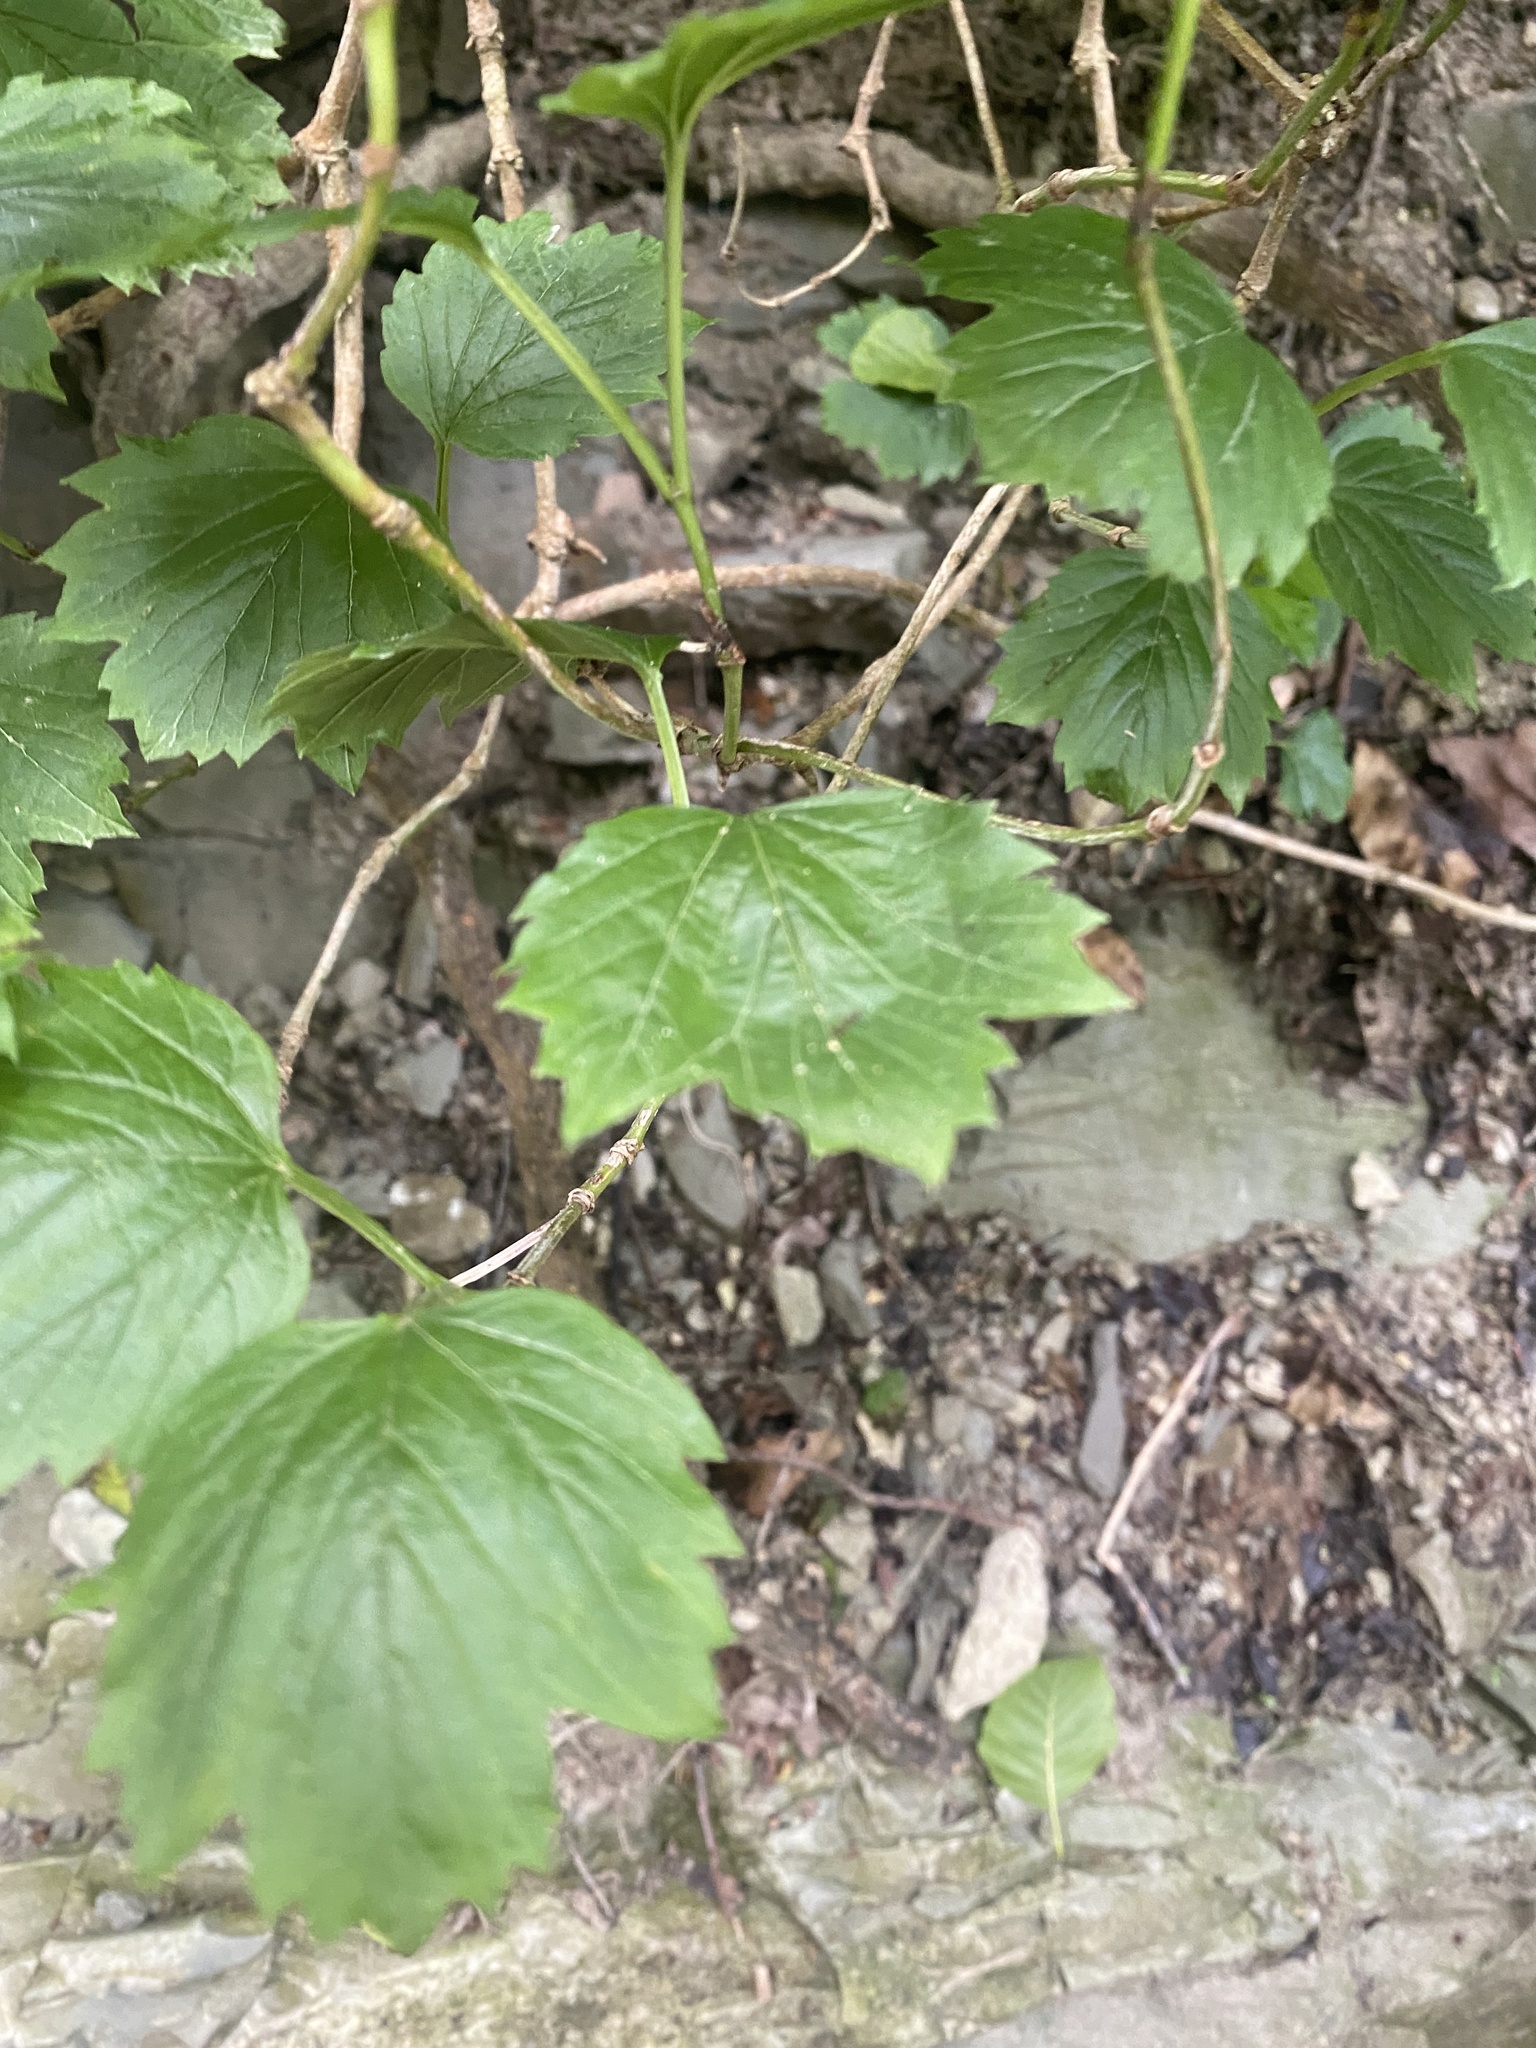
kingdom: Plantae
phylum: Tracheophyta
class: Magnoliopsida
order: Dipsacales
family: Viburnaceae
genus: Viburnum
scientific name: Viburnum opulus
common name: Guelder-rose
